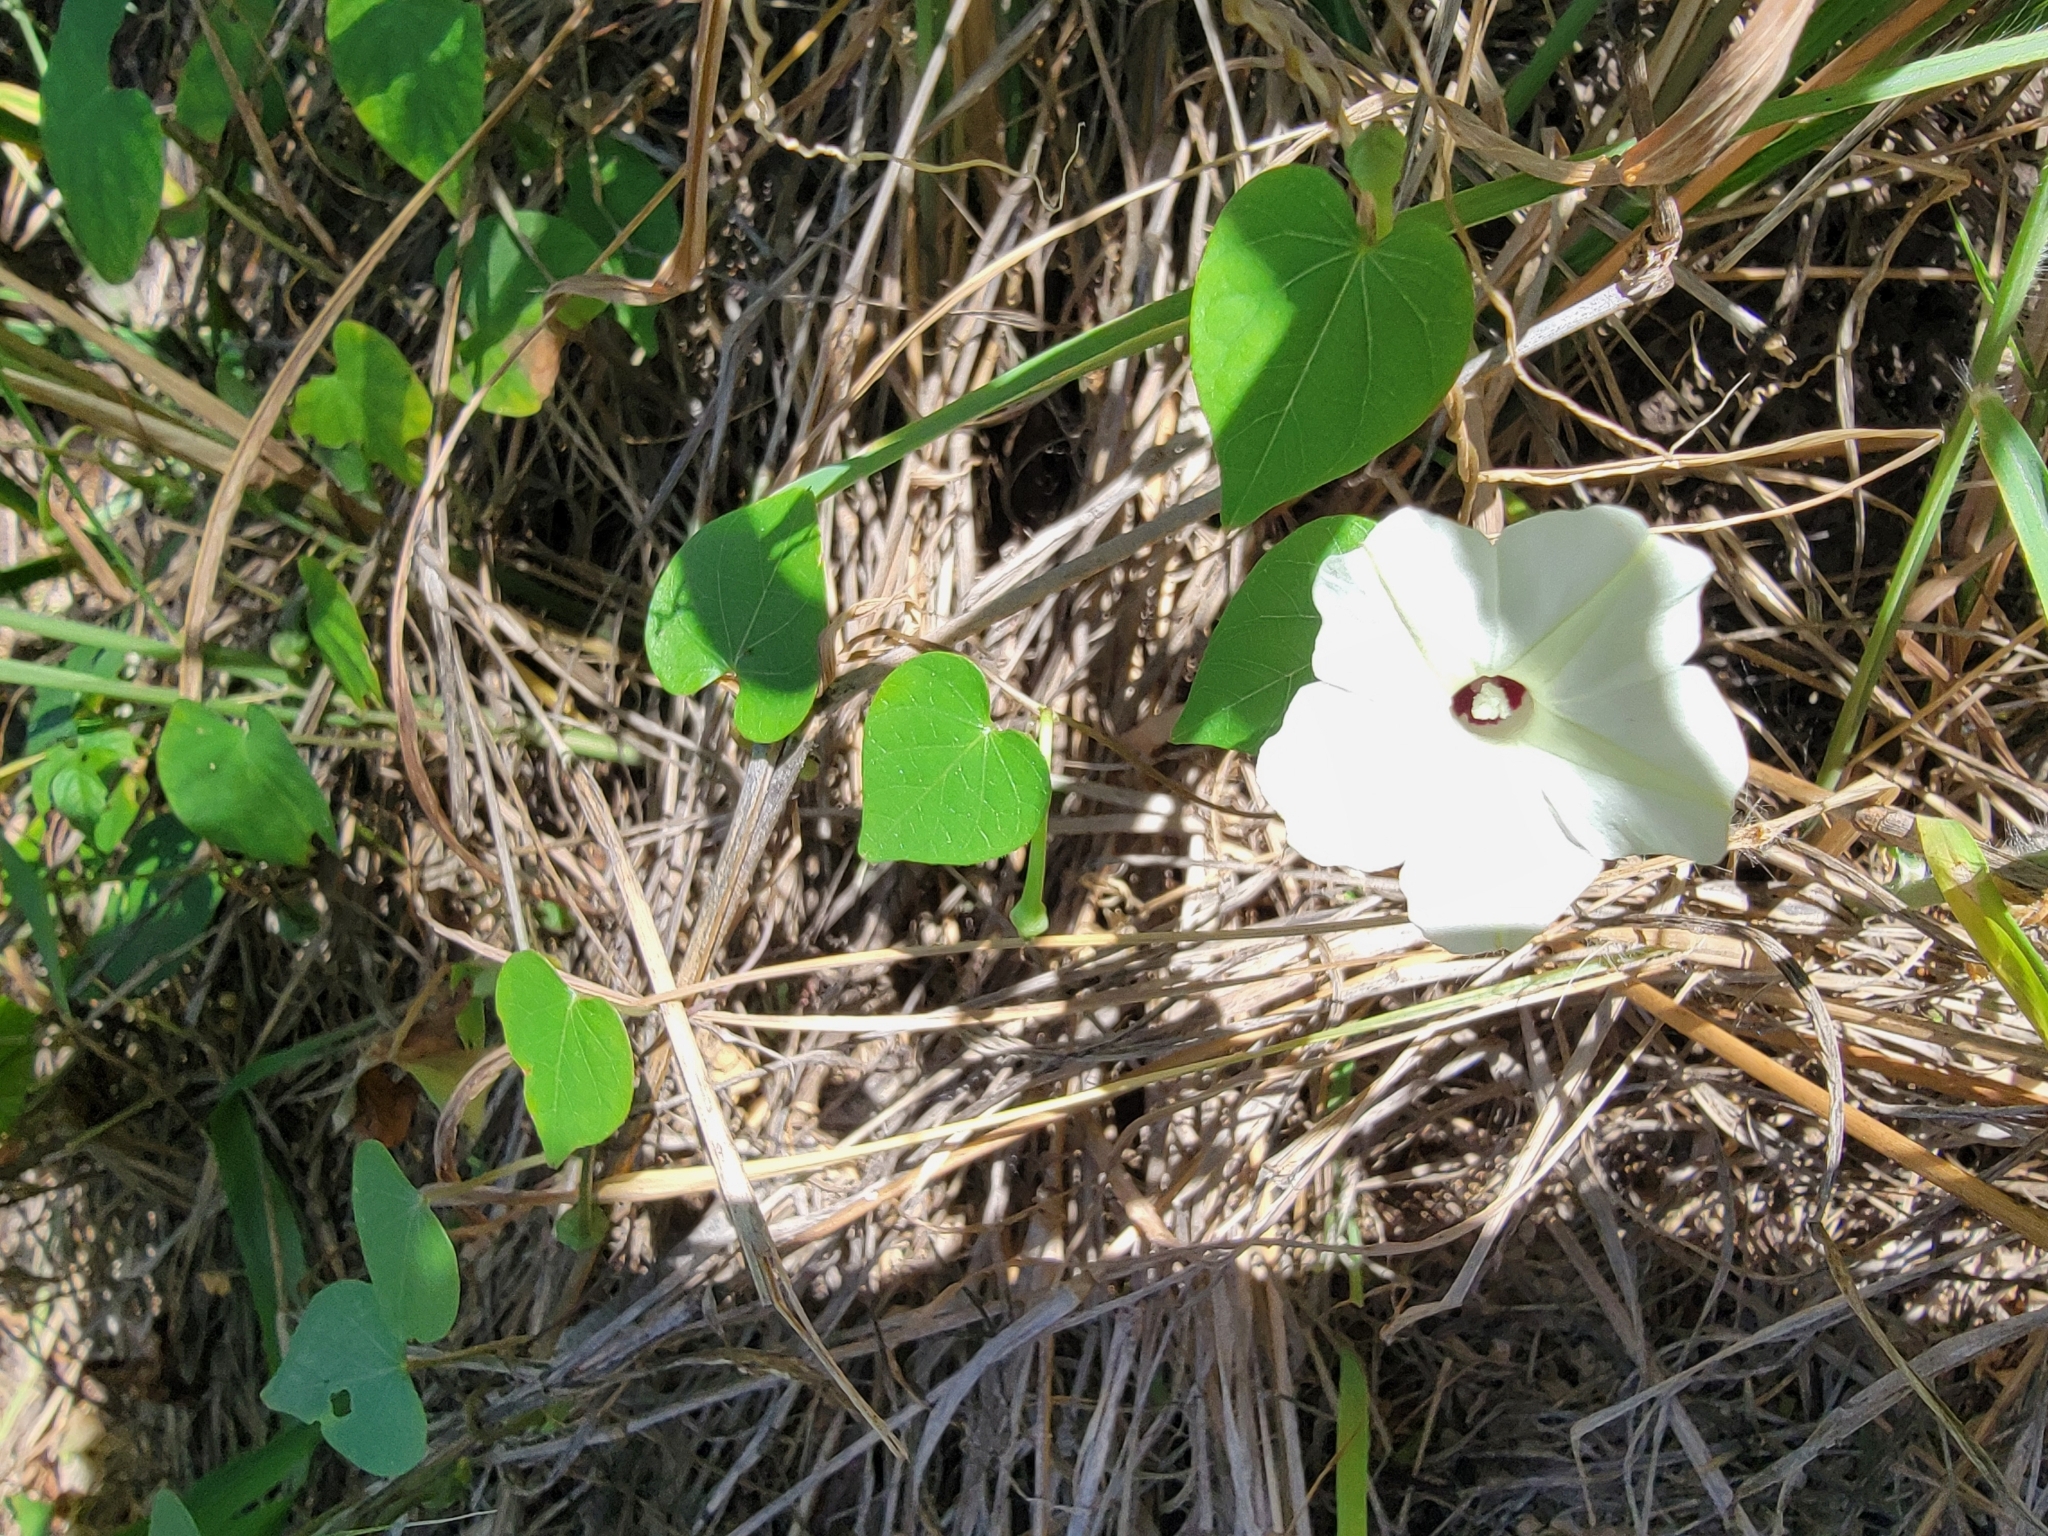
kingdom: Plantae
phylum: Tracheophyta
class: Magnoliopsida
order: Solanales
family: Convolvulaceae
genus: Ipomoea
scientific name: Ipomoea obscura
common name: Obscure morning-glory
